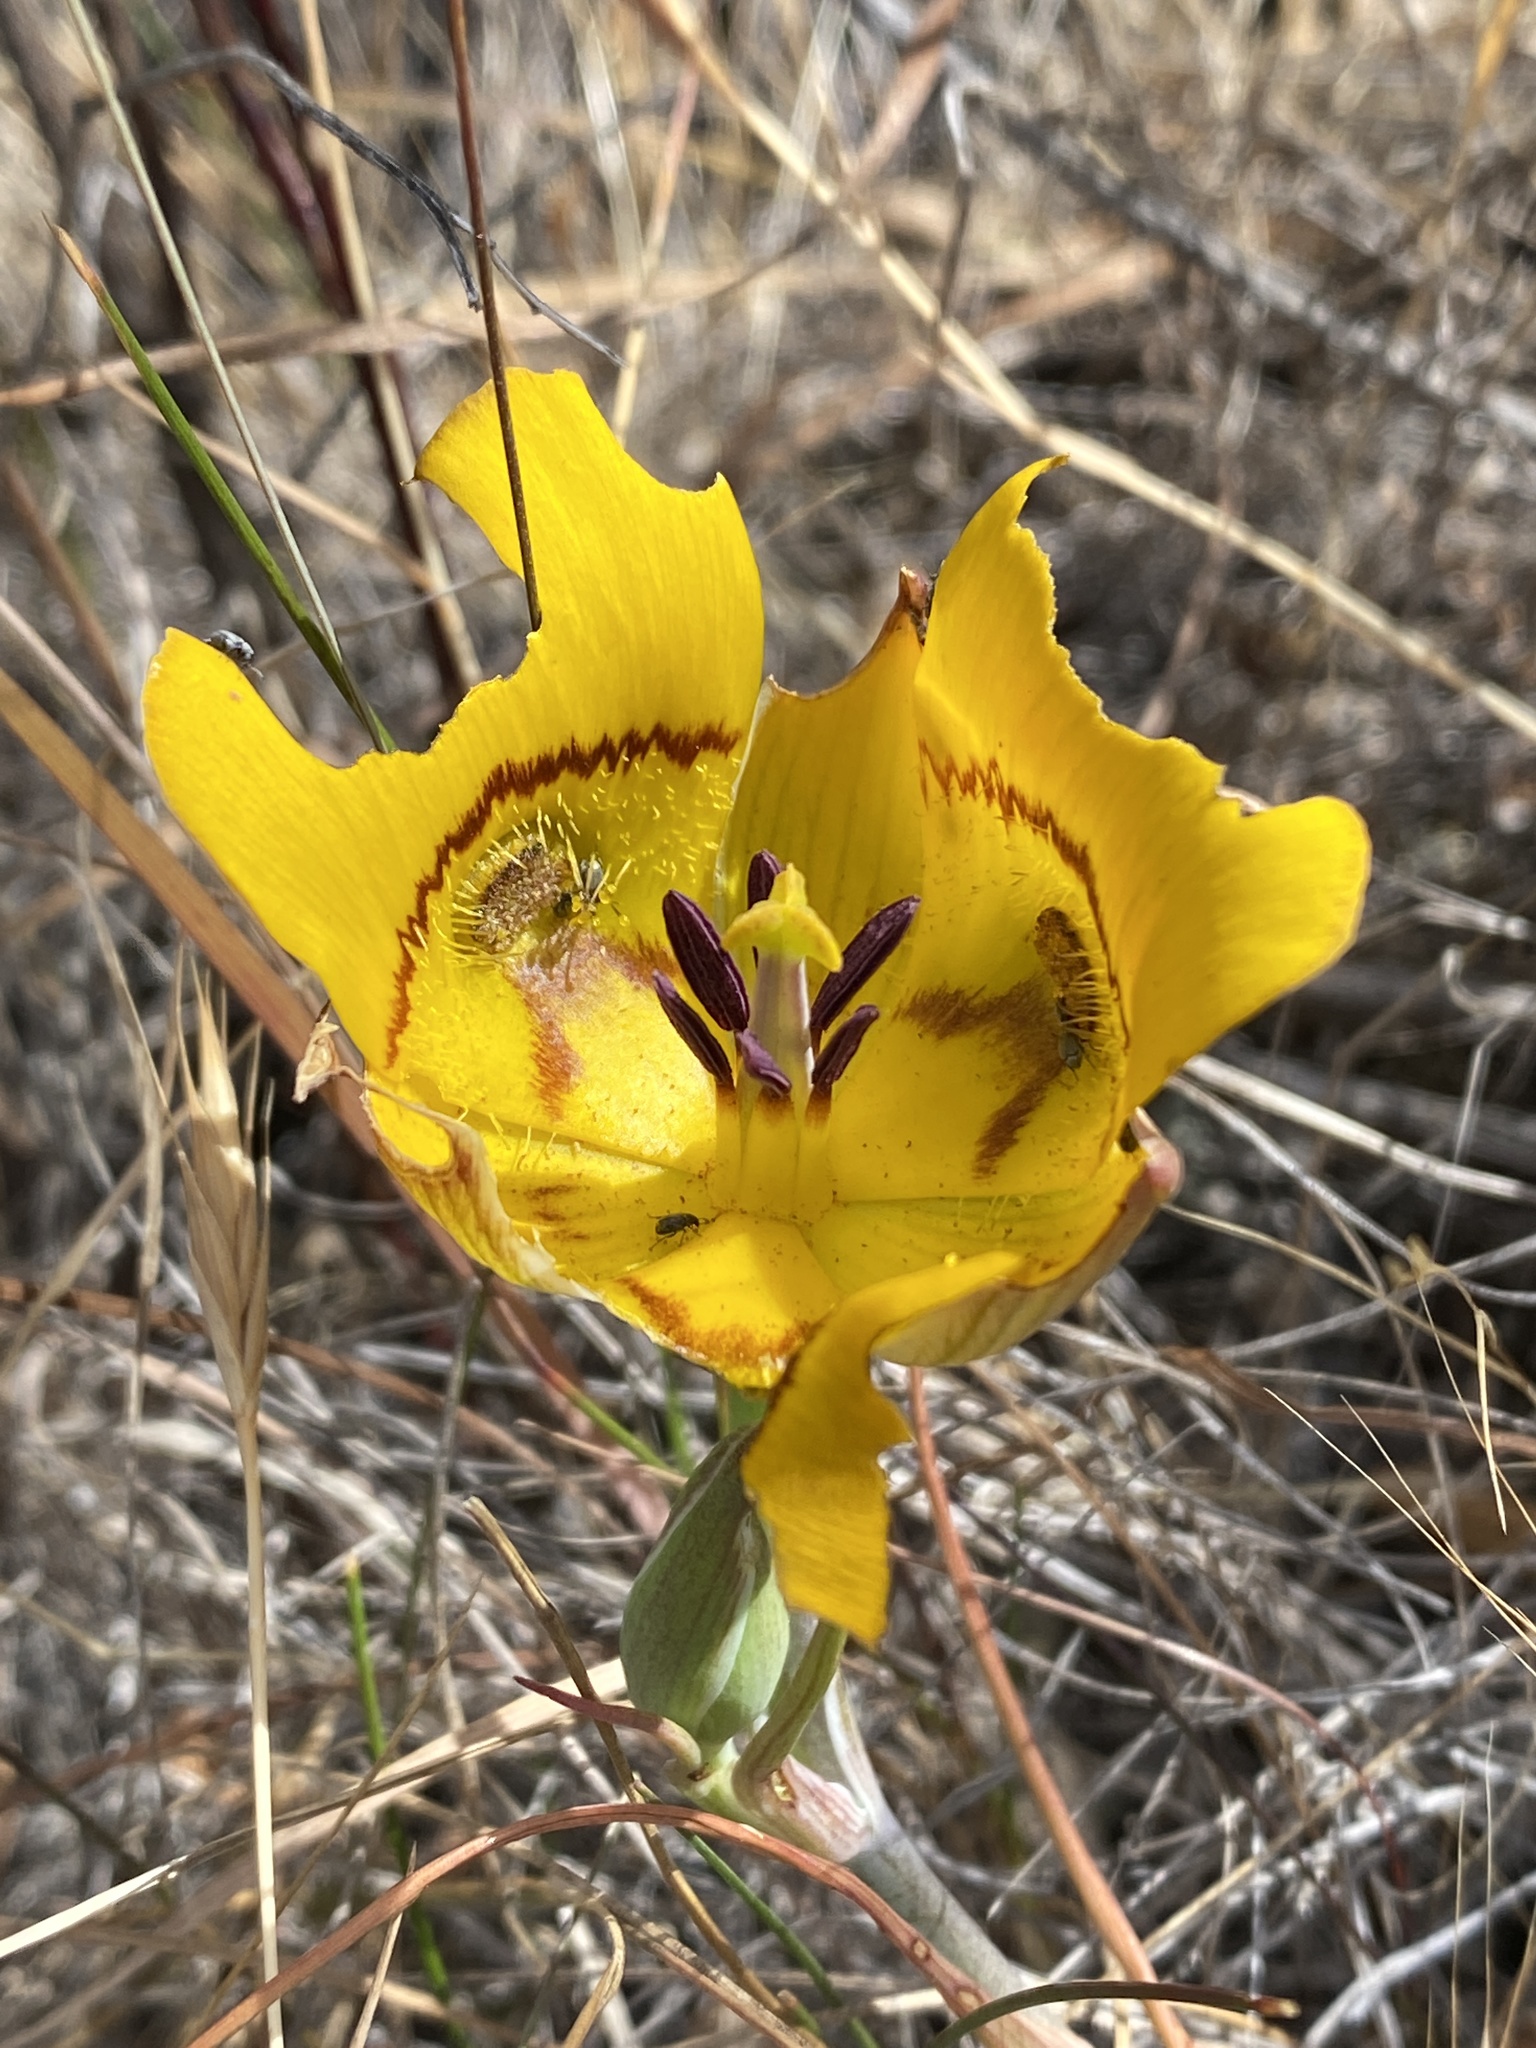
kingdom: Plantae
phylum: Tracheophyta
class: Liliopsida
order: Liliales
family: Liliaceae
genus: Calochortus
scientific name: Calochortus clavatus
